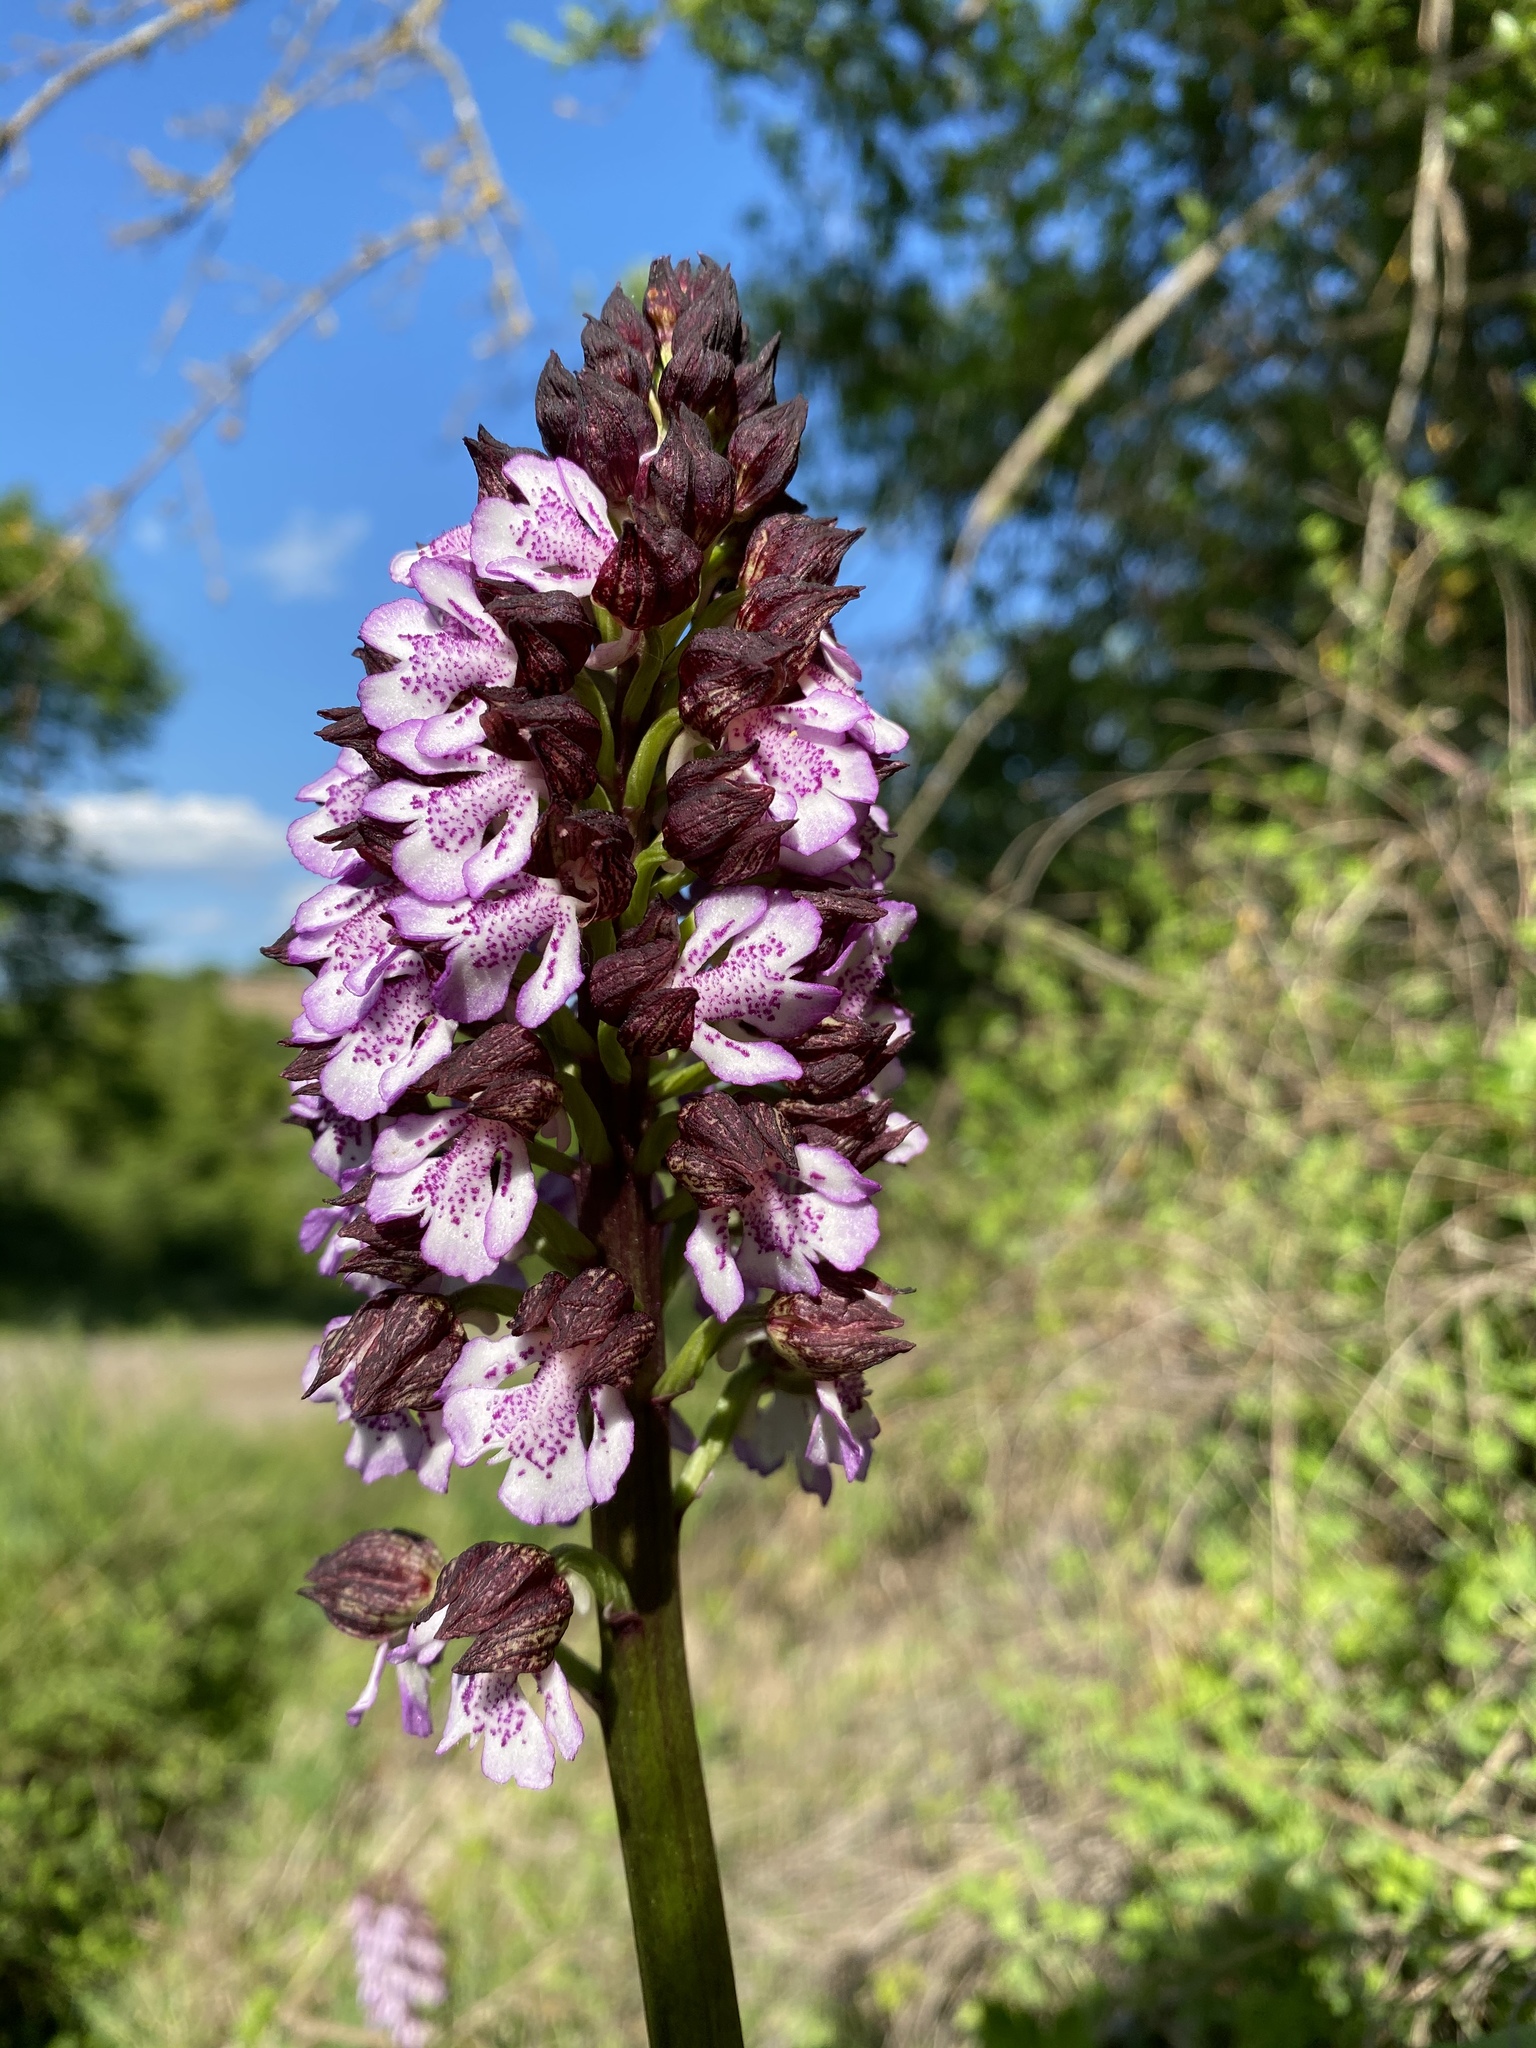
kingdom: Plantae
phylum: Tracheophyta
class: Liliopsida
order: Asparagales
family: Orchidaceae
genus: Orchis
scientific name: Orchis purpurea
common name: Lady orchid
